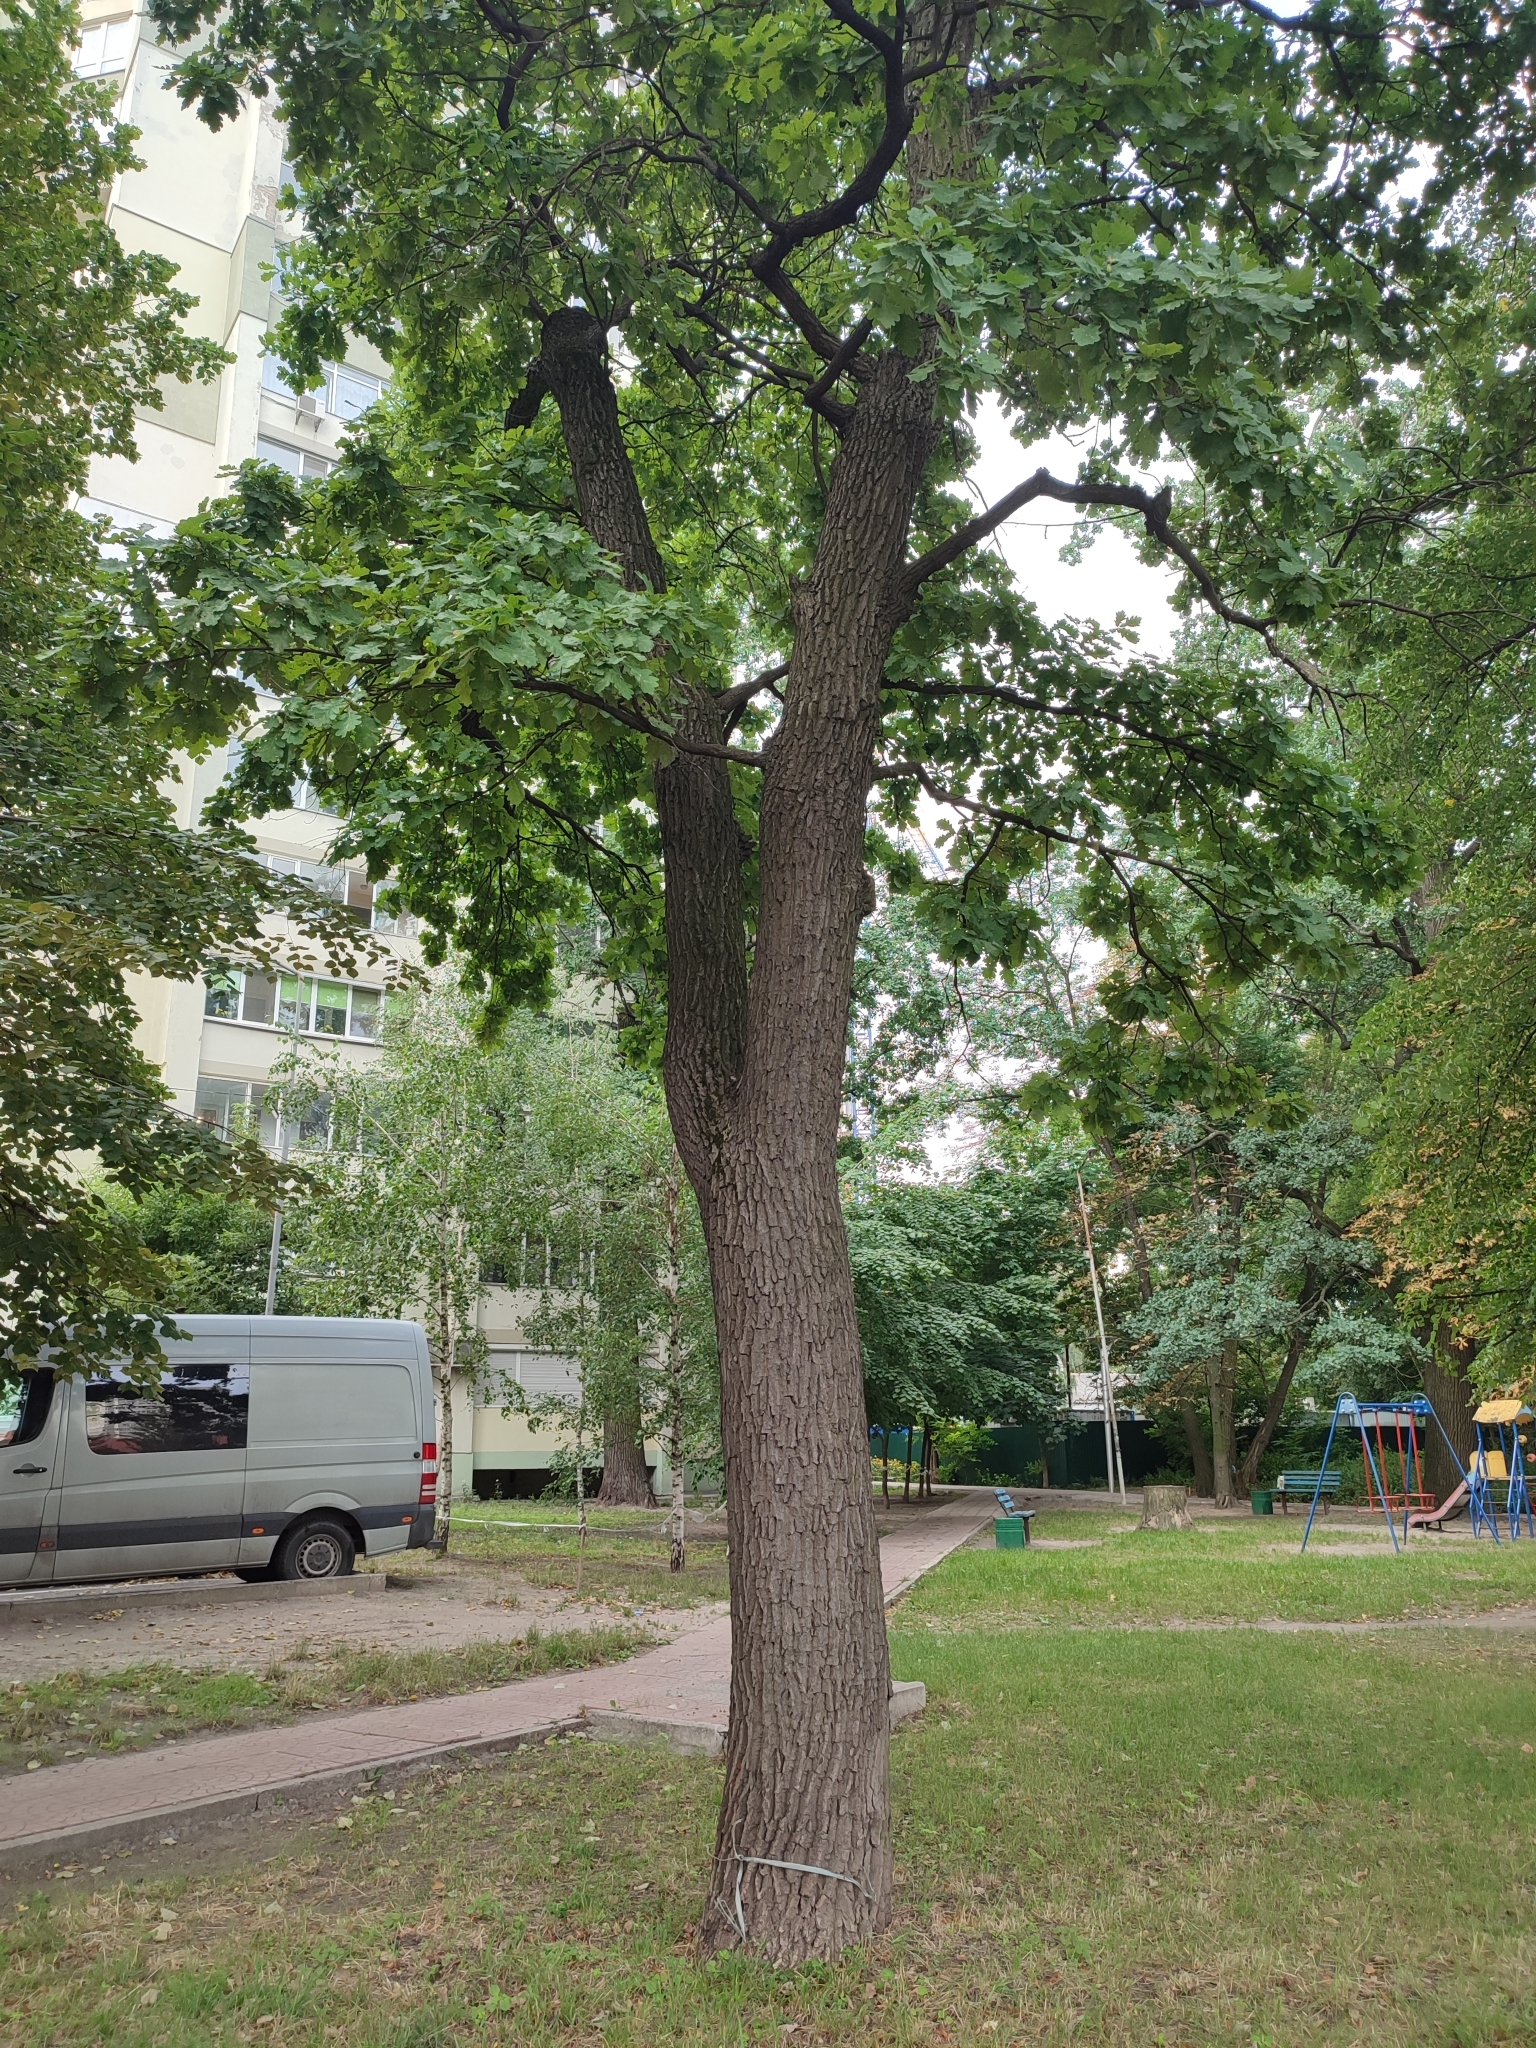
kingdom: Plantae
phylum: Tracheophyta
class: Magnoliopsida
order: Fagales
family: Fagaceae
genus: Quercus
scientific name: Quercus robur
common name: Pedunculate oak
